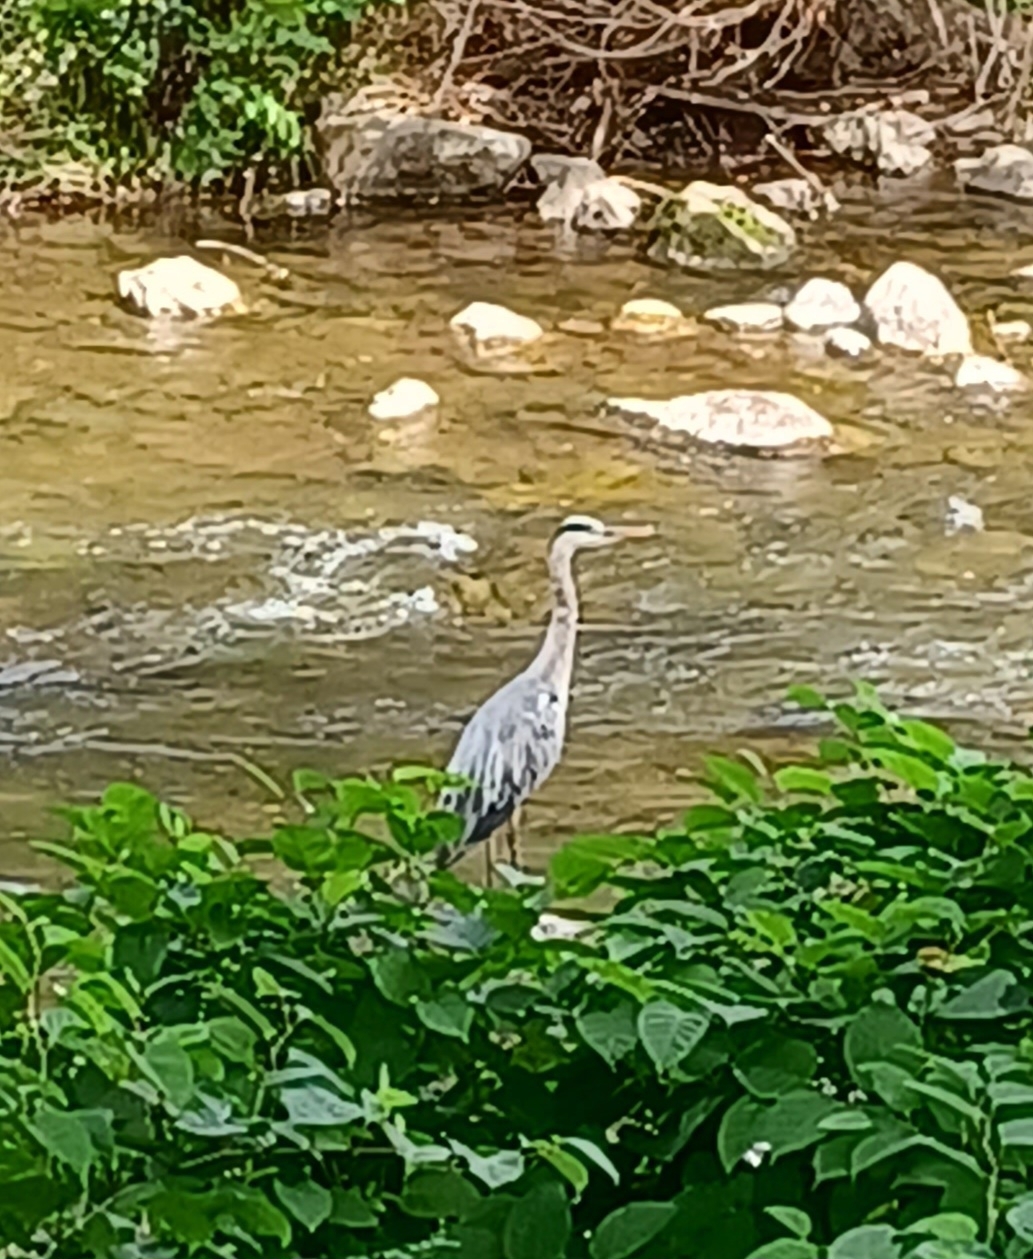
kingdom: Animalia
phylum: Chordata
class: Aves
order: Pelecaniformes
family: Ardeidae
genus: Ardea
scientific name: Ardea cinerea
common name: Grey heron
